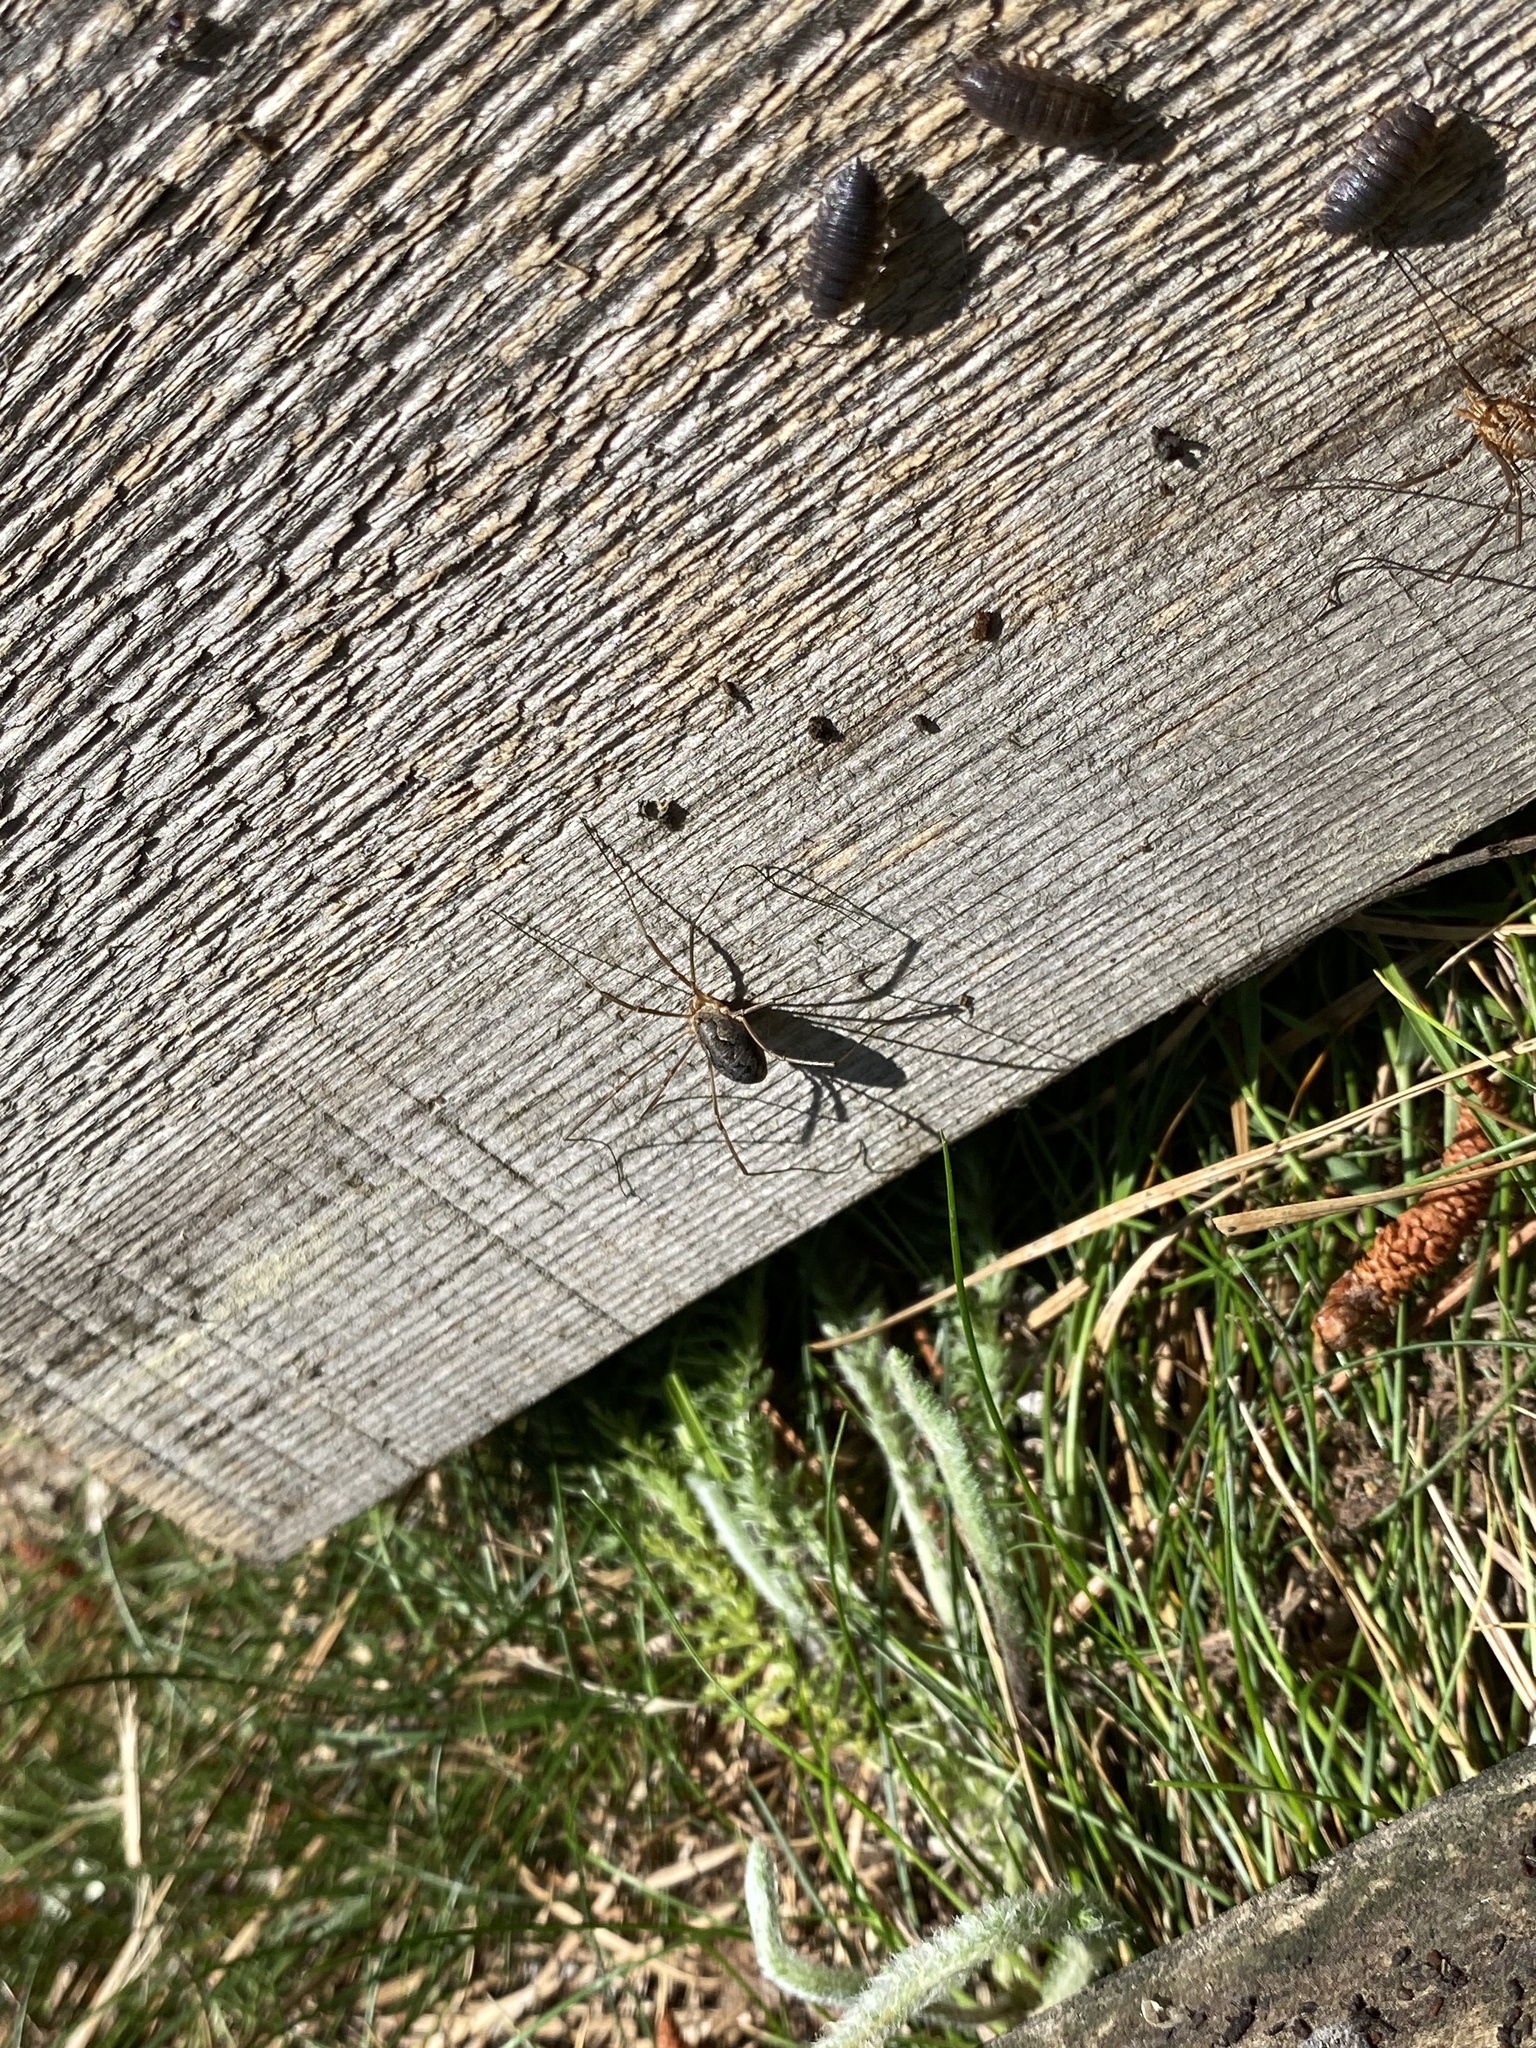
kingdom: Animalia
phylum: Arthropoda
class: Arachnida
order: Opiliones
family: Phalangiidae
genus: Phalangium
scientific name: Phalangium opilio
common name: Daddy longleg
